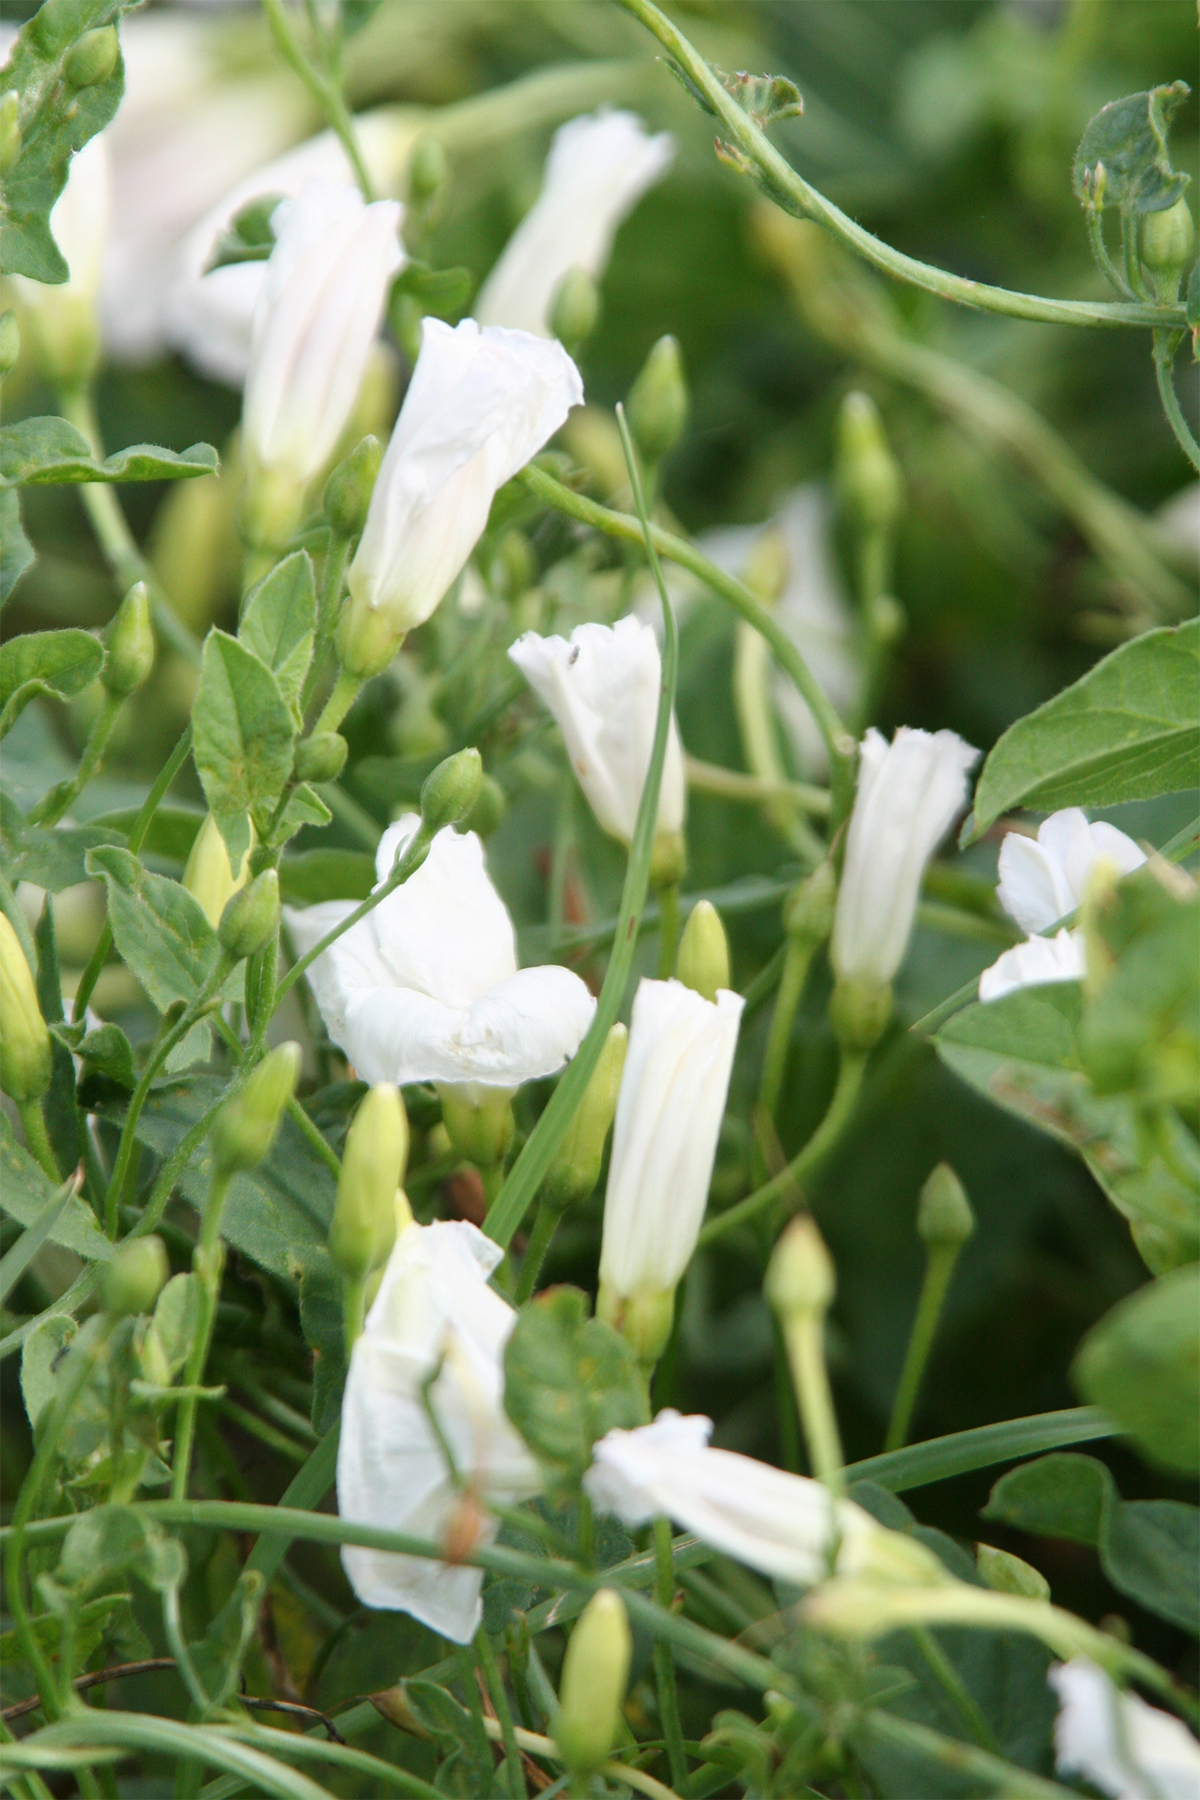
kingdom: Plantae
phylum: Tracheophyta
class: Magnoliopsida
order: Solanales
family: Convolvulaceae
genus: Convolvulus
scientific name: Convolvulus arvensis
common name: Field bindweed
